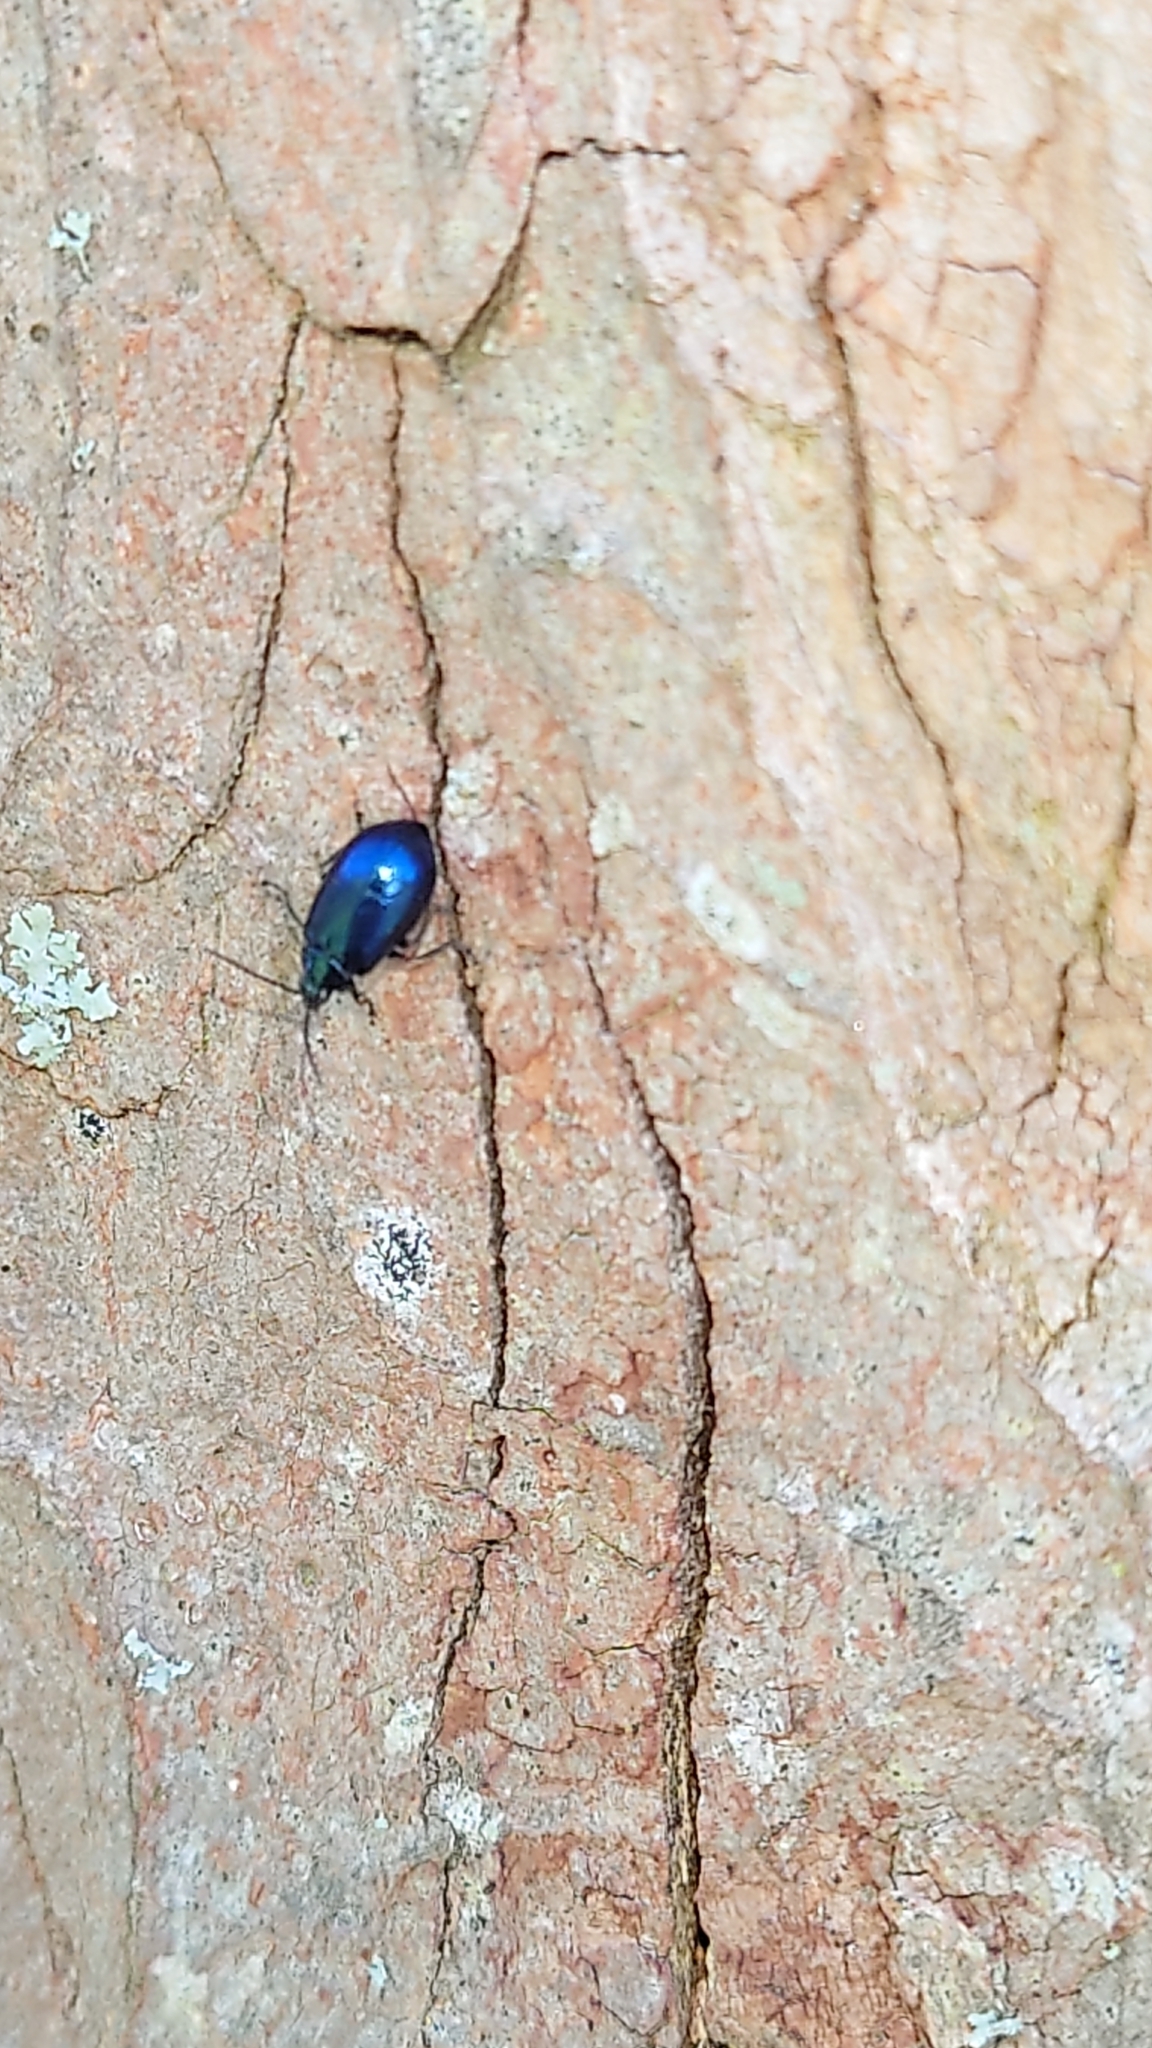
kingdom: Animalia
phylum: Arthropoda
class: Insecta
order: Coleoptera
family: Chrysomelidae
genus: Agelastica
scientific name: Agelastica alni
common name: Alder leaf beetle
